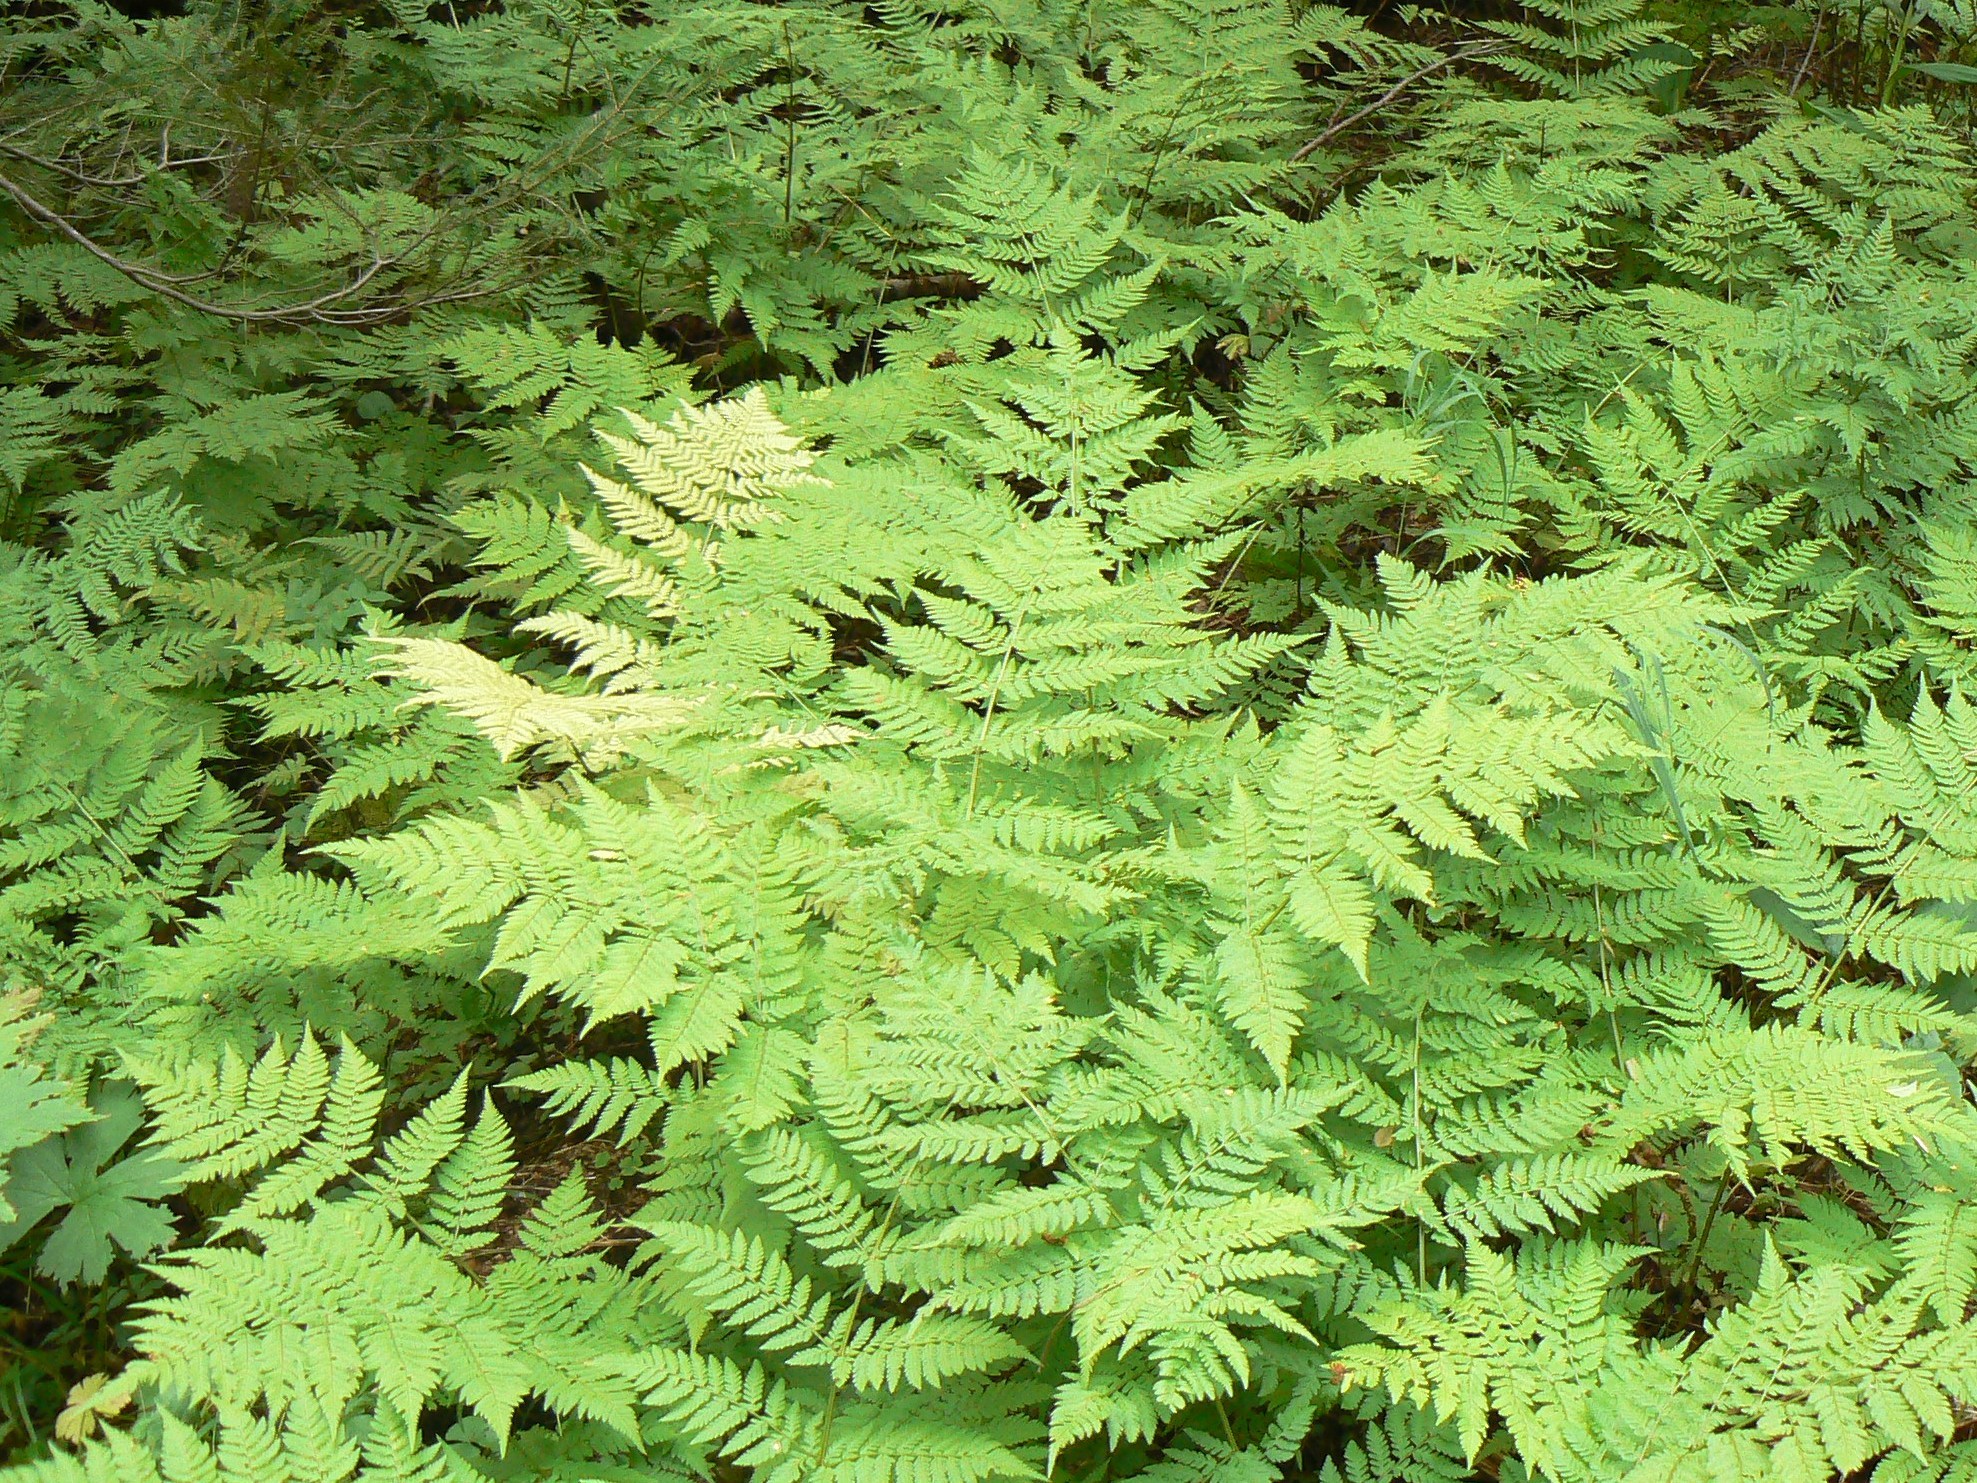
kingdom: Plantae
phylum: Tracheophyta
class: Polypodiopsida
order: Polypodiales
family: Dryopteridaceae
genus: Dryopteris
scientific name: Dryopteris expansa
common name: Northern buckler fern
